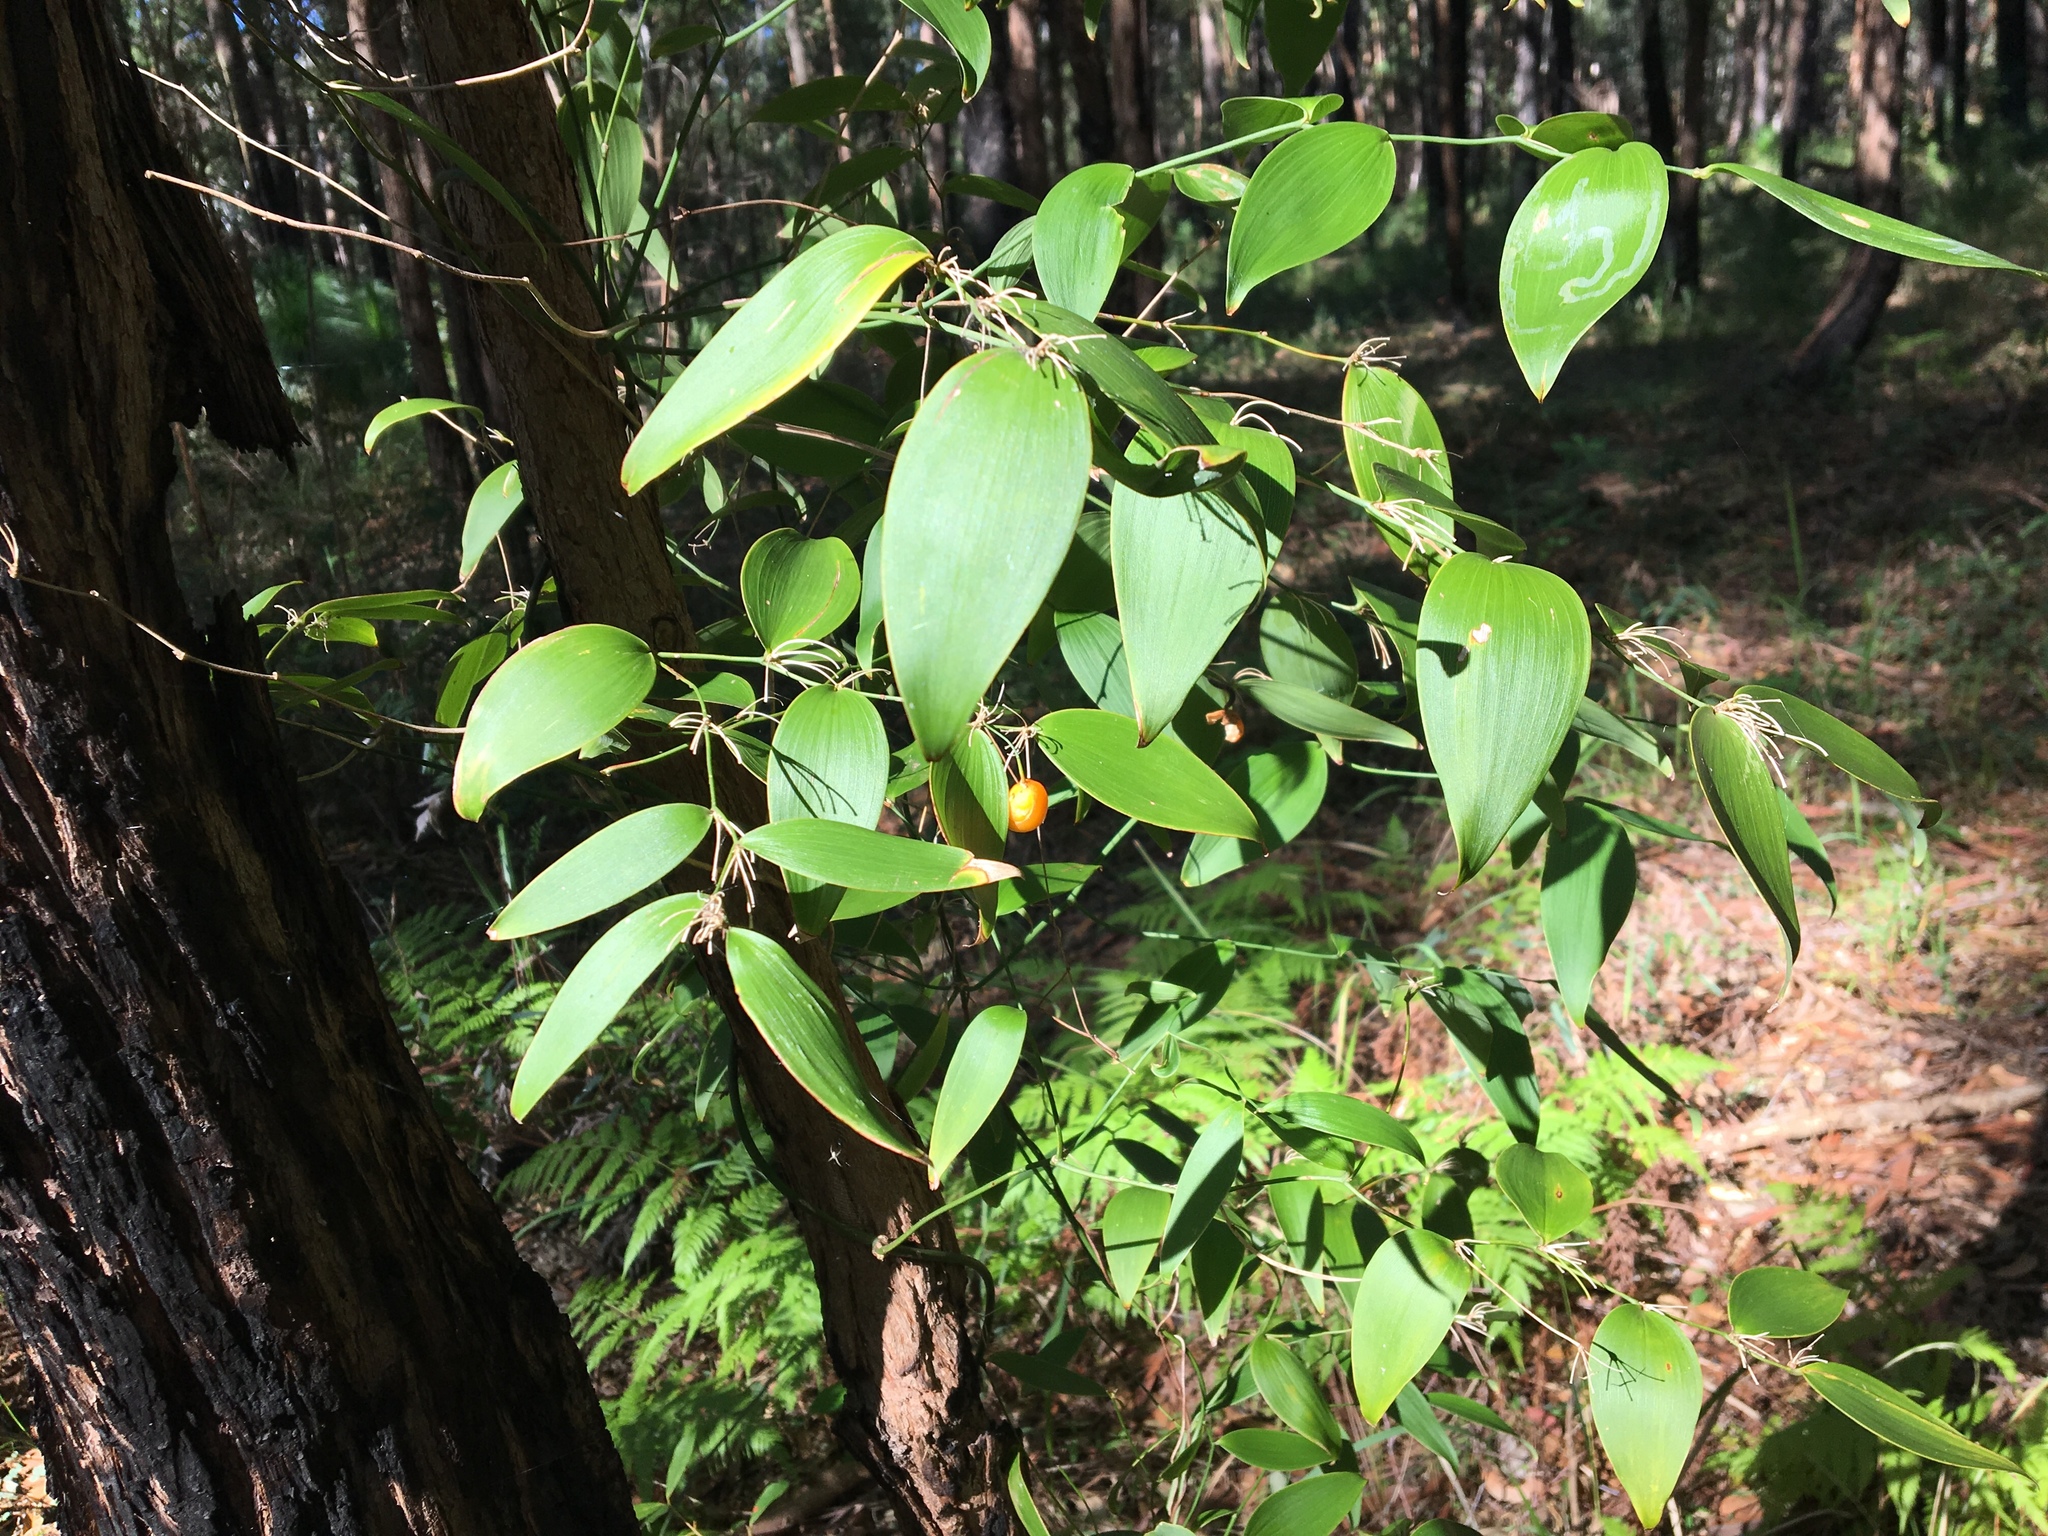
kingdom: Plantae
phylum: Tracheophyta
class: Liliopsida
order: Asparagales
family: Asparagaceae
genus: Eustrephus
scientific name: Eustrephus latifolius
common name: Orangevine
